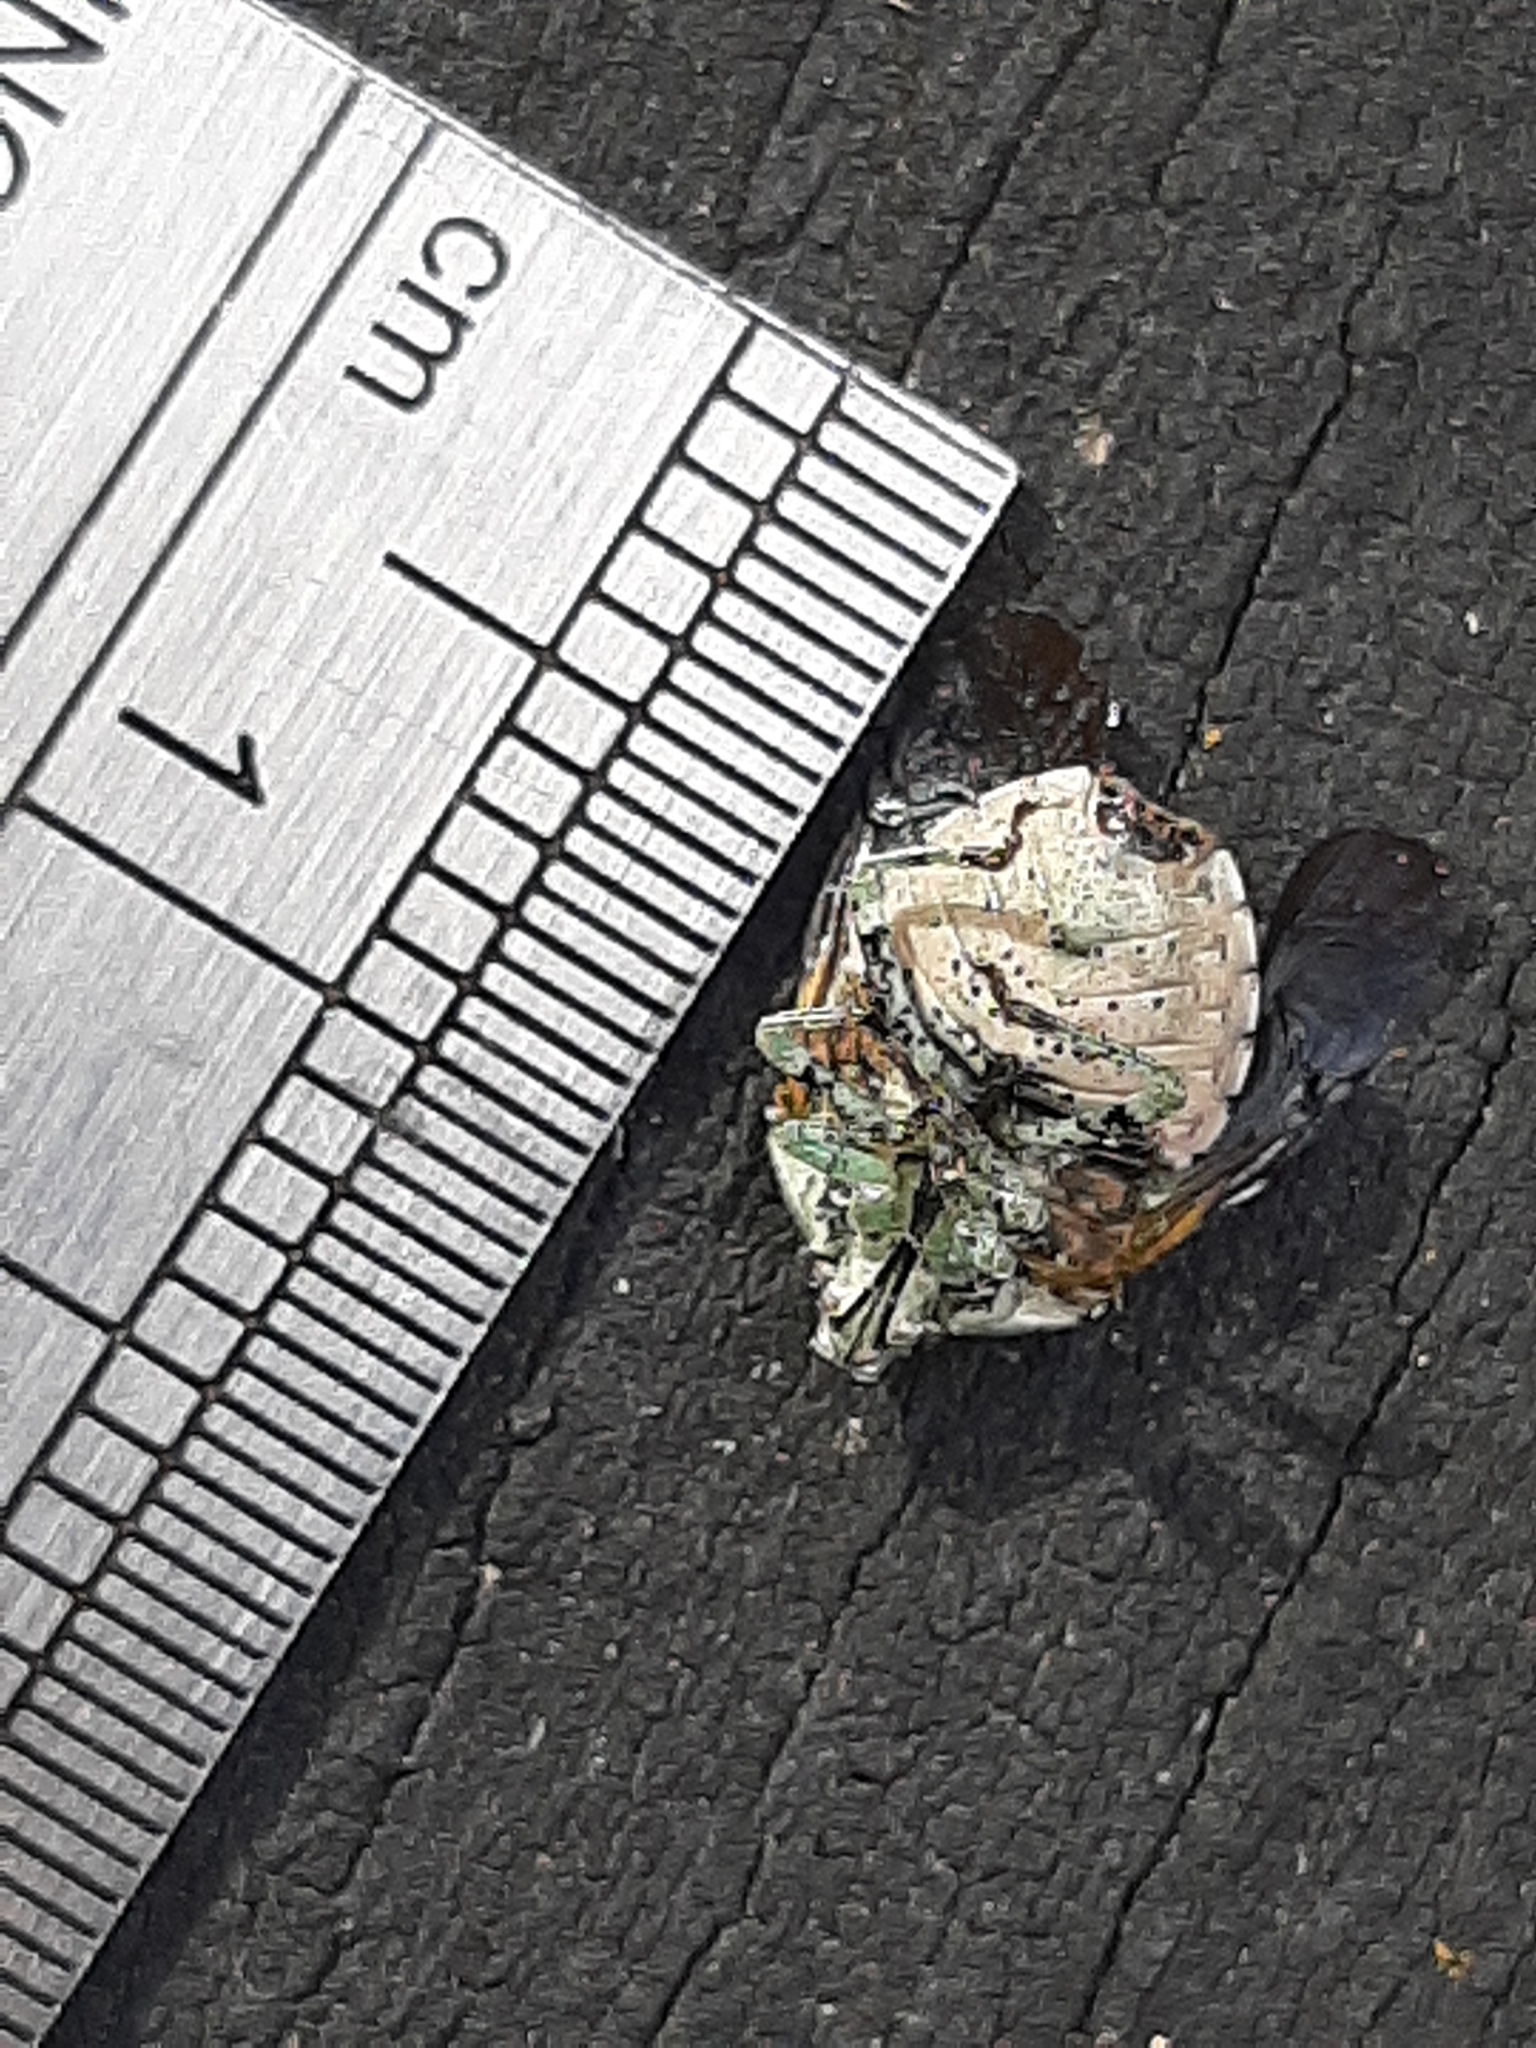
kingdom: Animalia
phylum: Arthropoda
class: Insecta
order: Hemiptera
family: Pentatomidae
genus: Monteithiella
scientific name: Monteithiella
